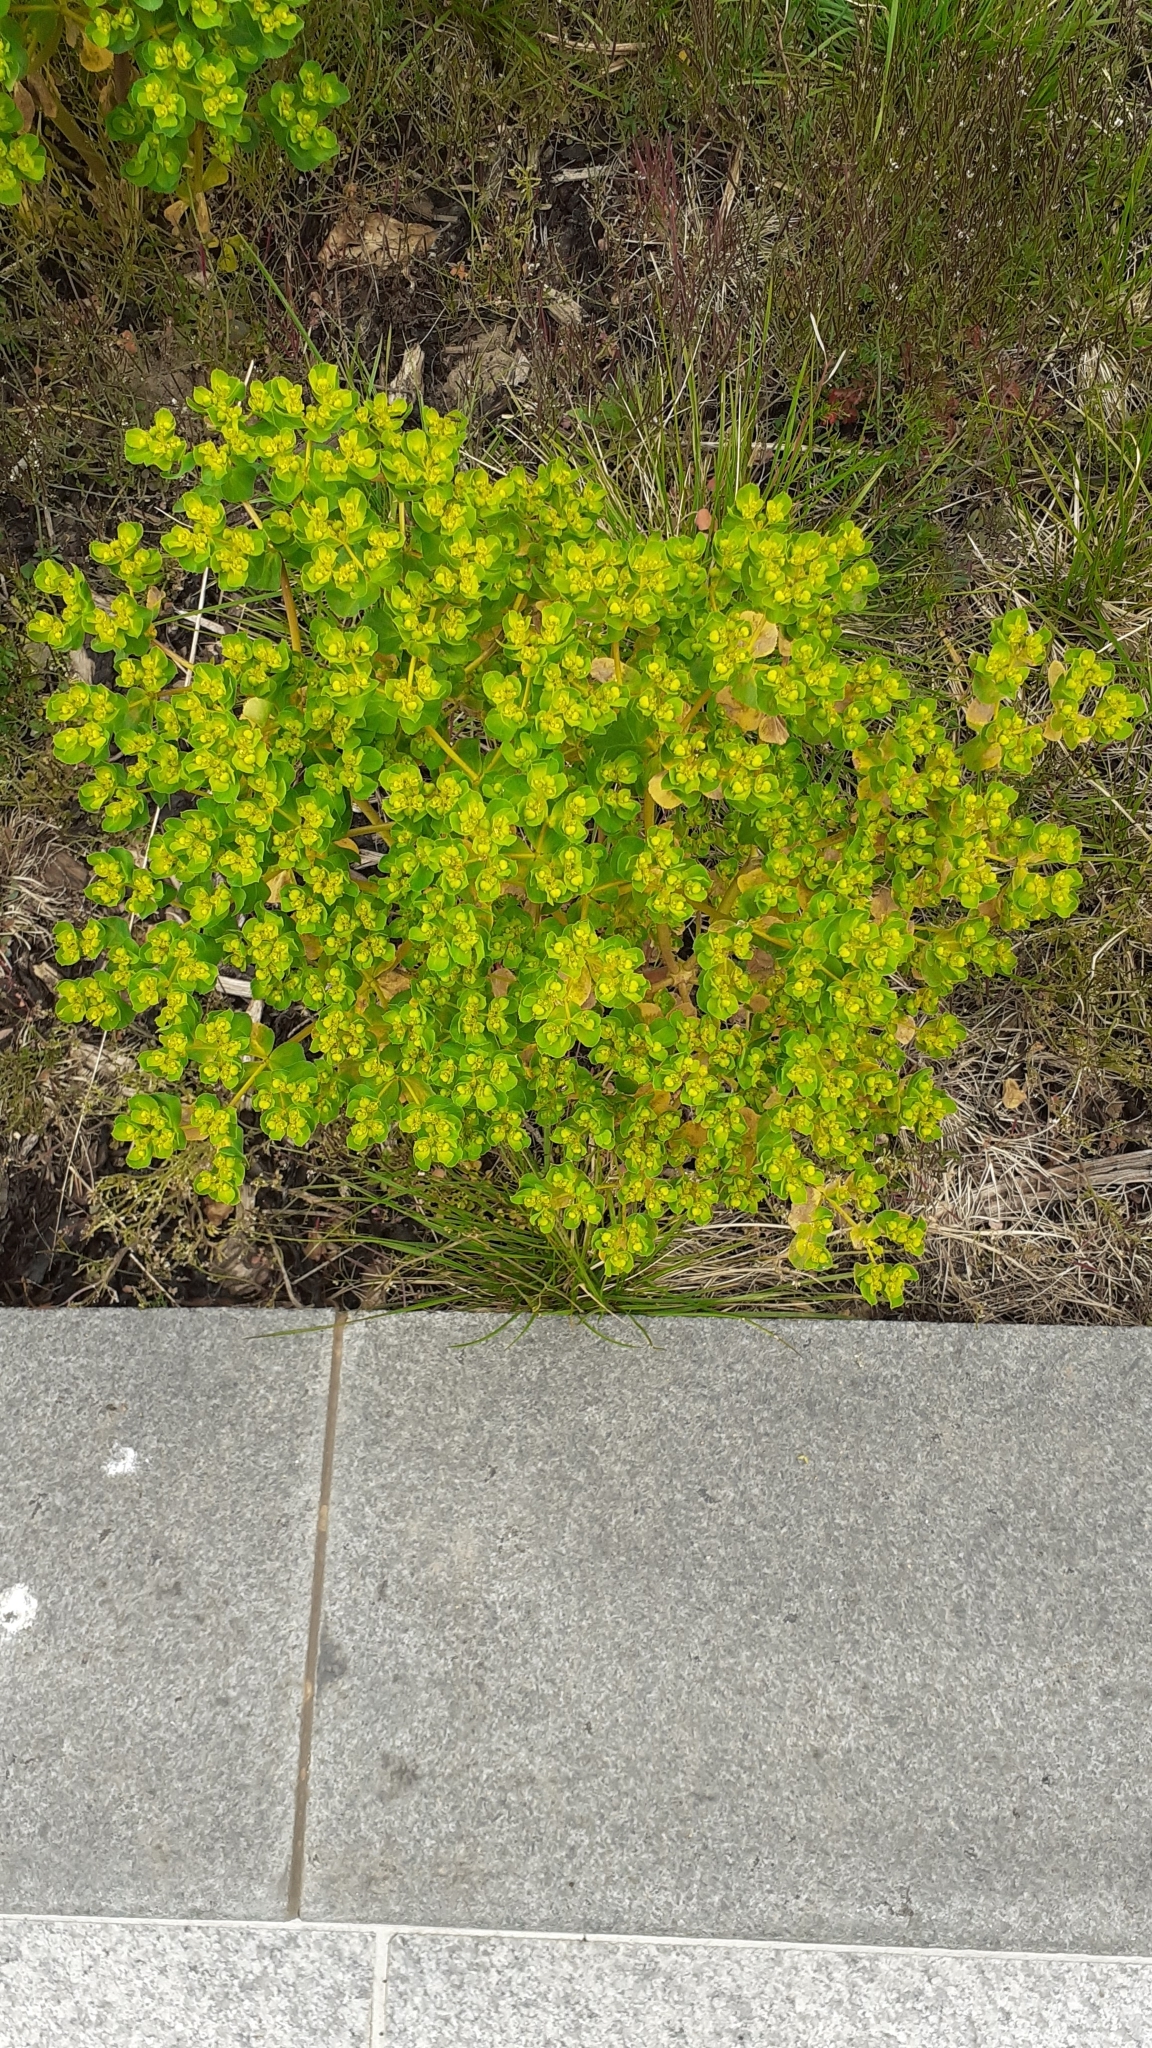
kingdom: Plantae
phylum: Tracheophyta
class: Magnoliopsida
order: Malpighiales
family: Euphorbiaceae
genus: Euphorbia
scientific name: Euphorbia helioscopia
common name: Sun spurge
